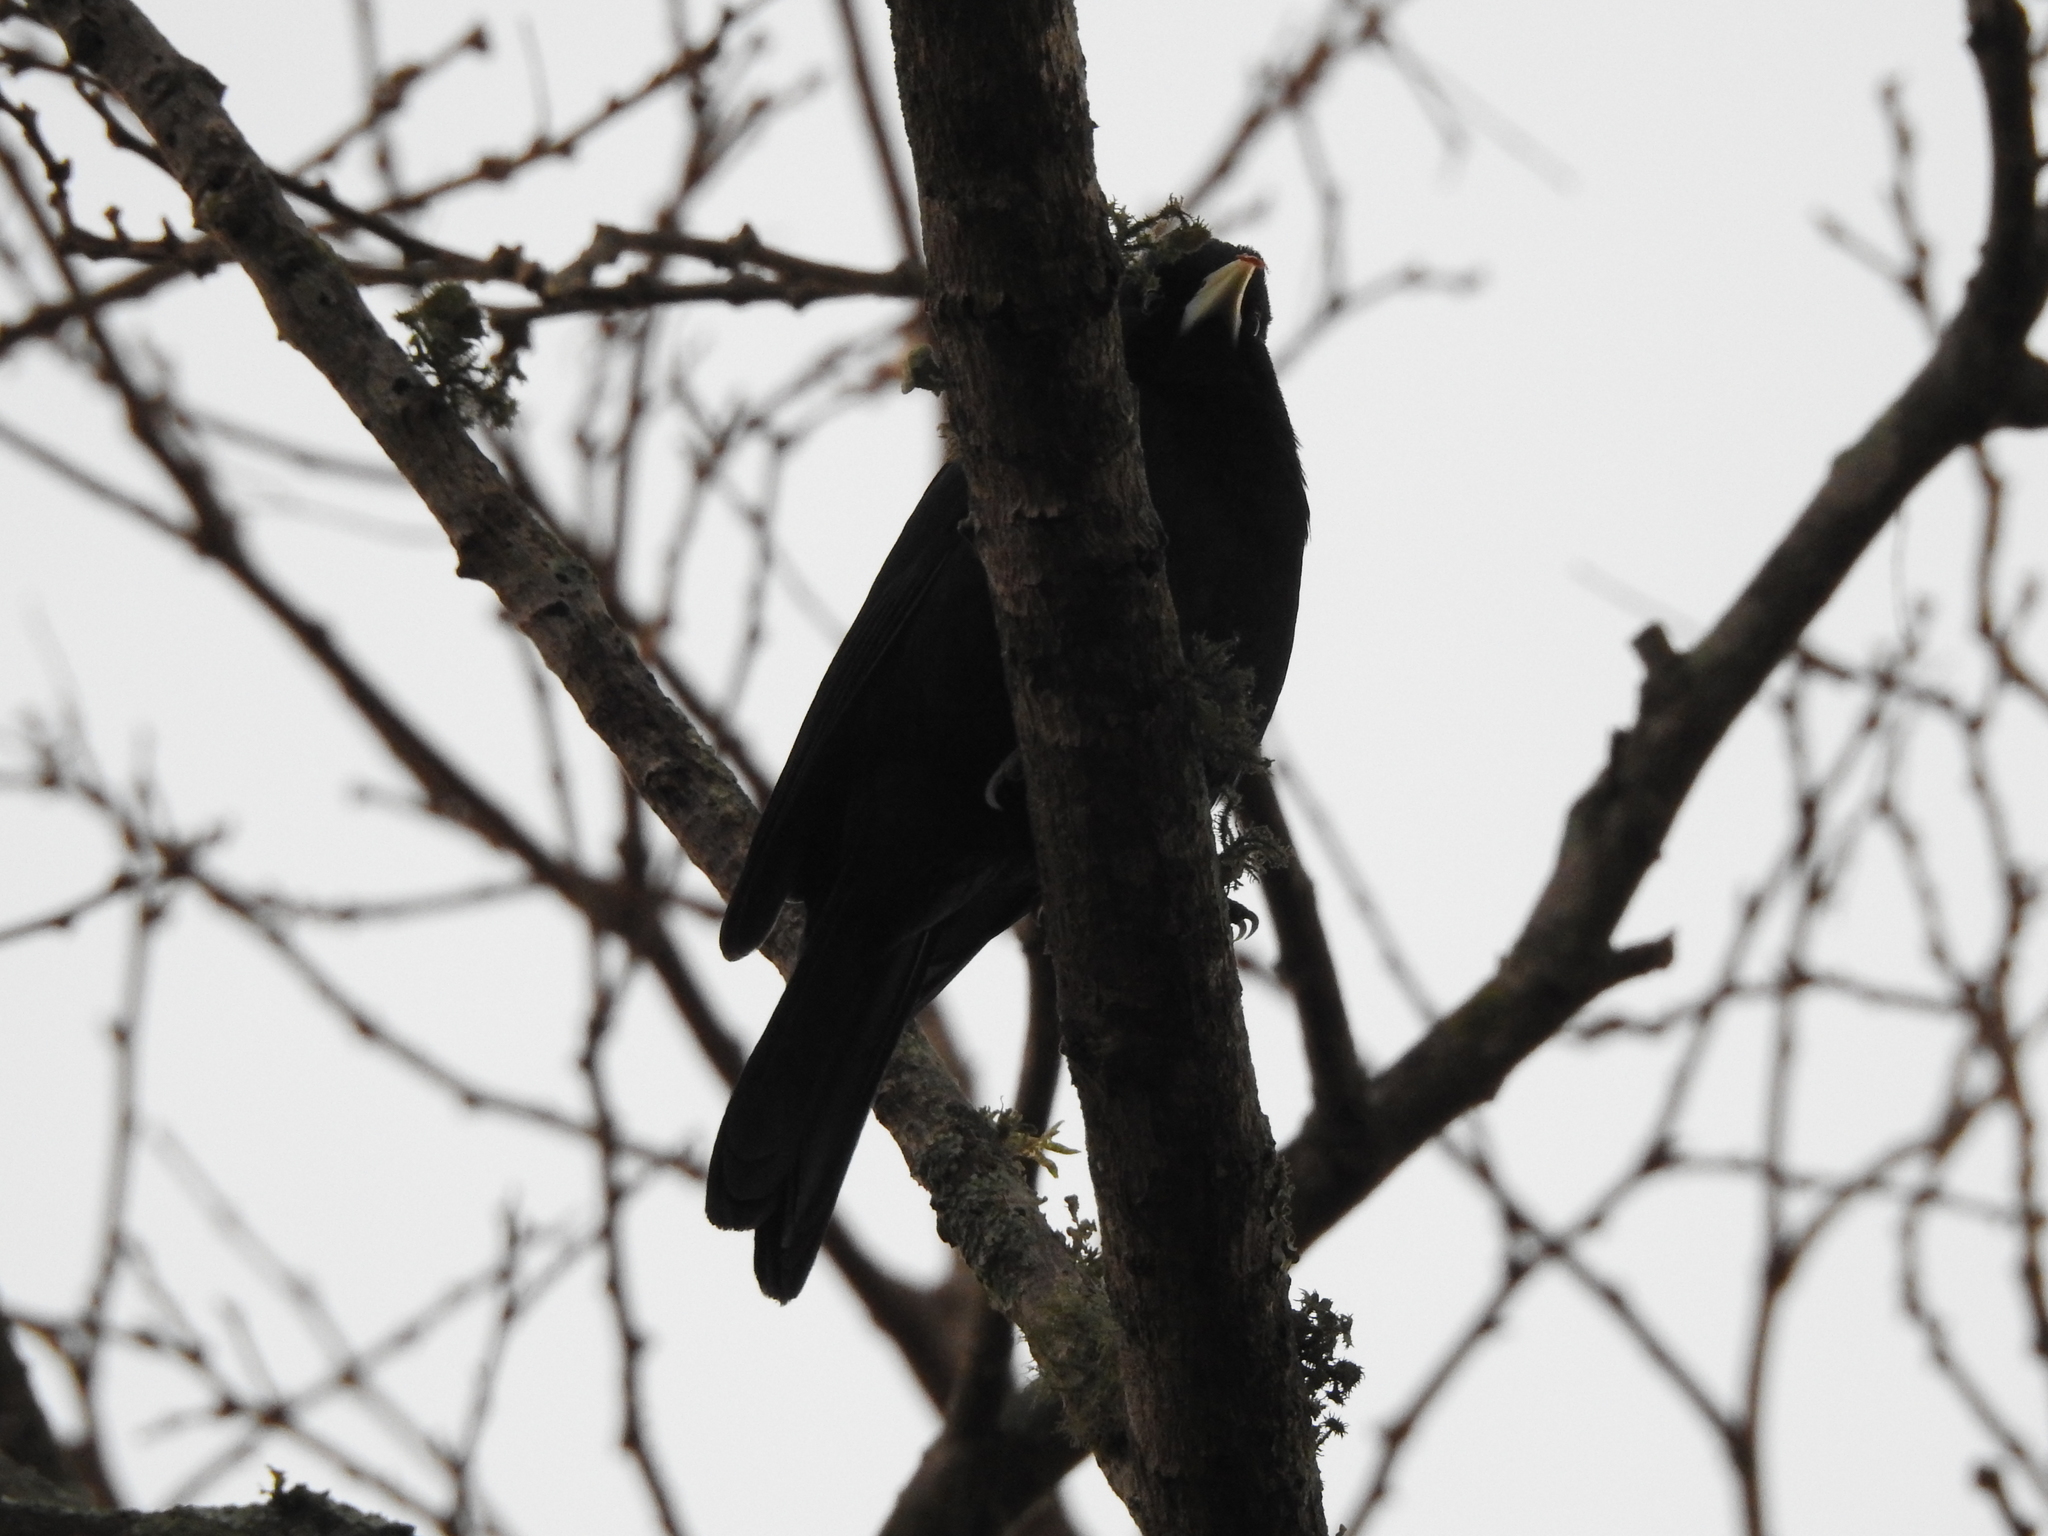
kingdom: Animalia
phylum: Chordata
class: Aves
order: Passeriformes
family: Icteridae
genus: Cacicus
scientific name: Cacicus solitarius
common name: Solitary cacique
